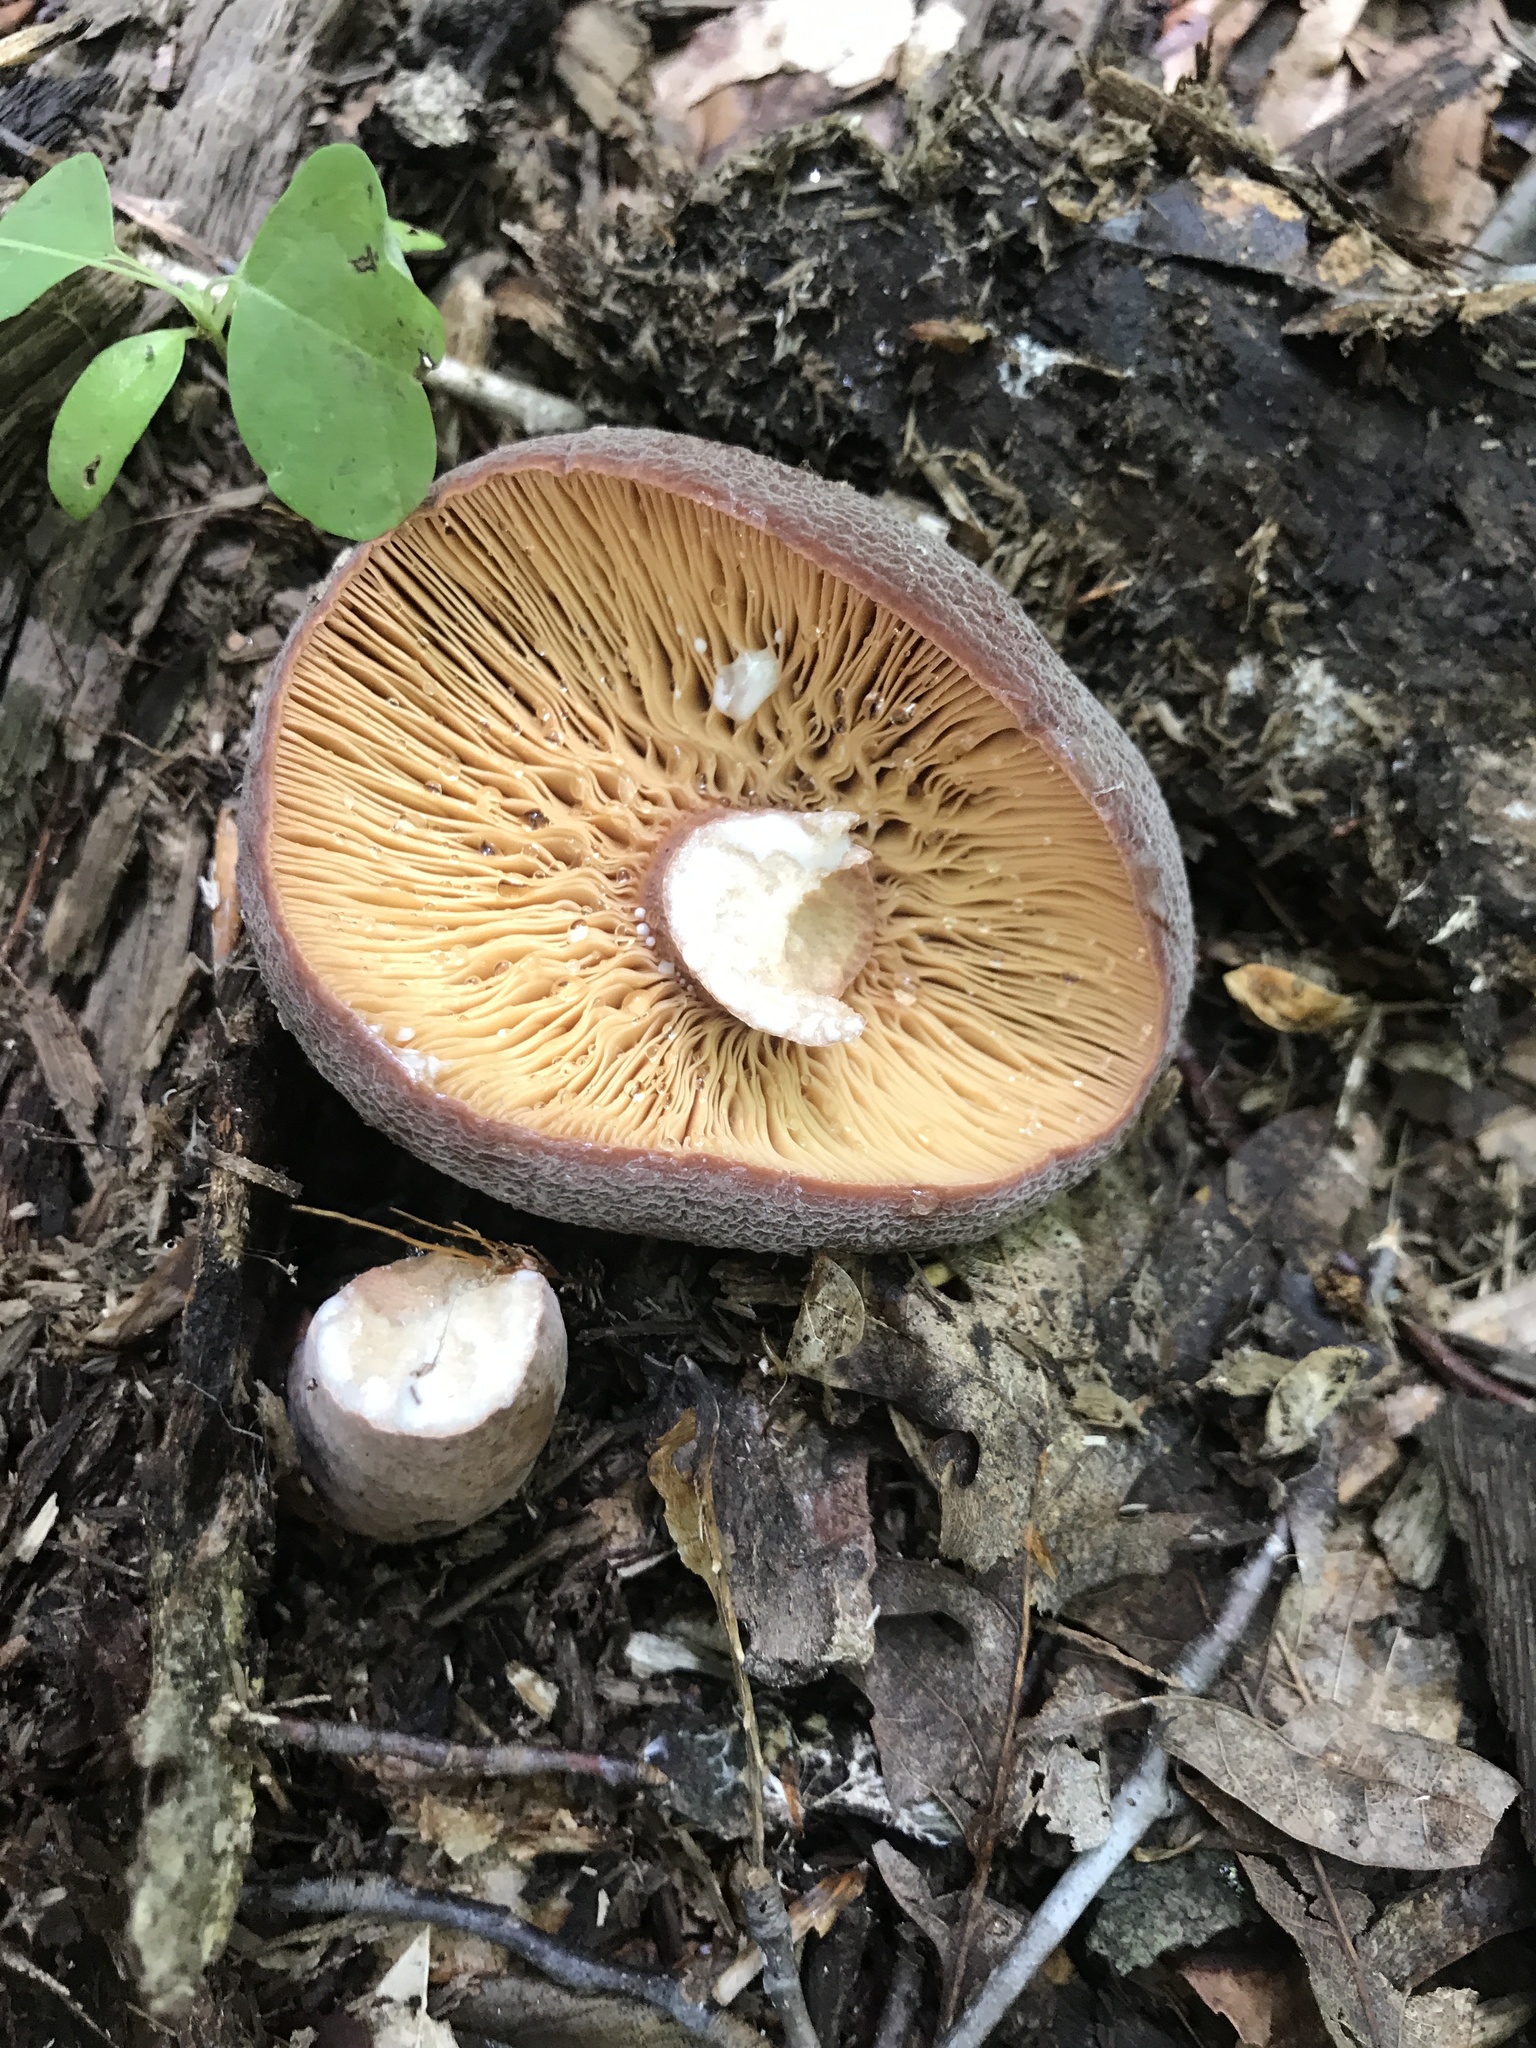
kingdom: Fungi
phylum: Basidiomycota
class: Agaricomycetes
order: Russulales
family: Russulaceae
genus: Lactarius
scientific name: Lactarius corrugis
